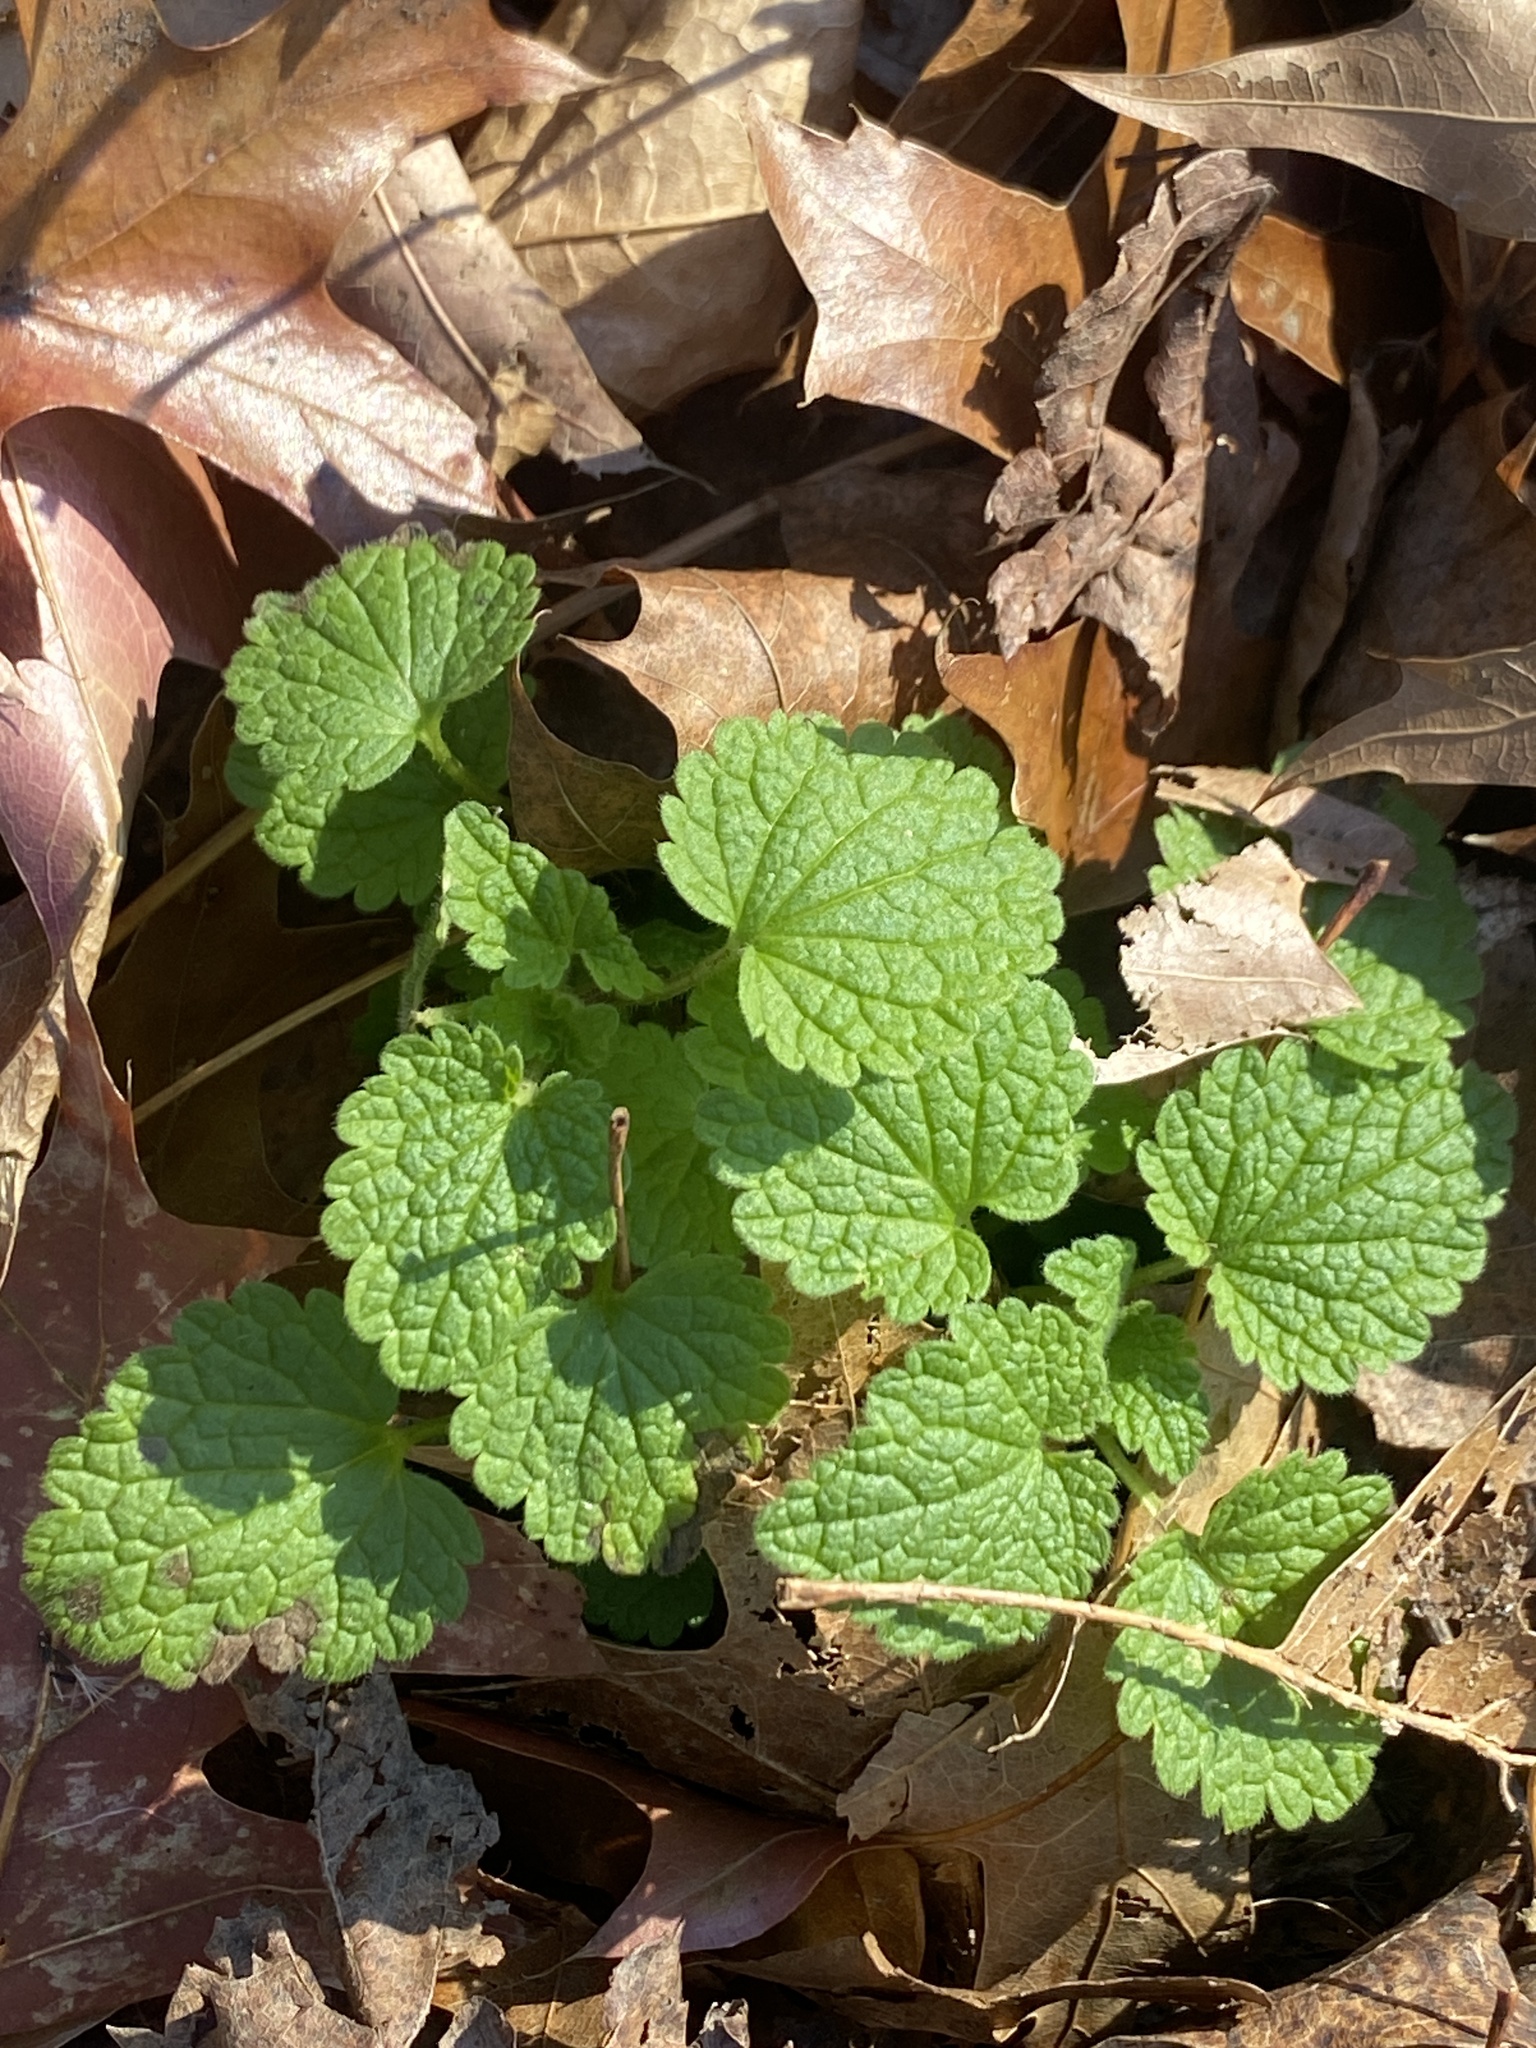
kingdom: Plantae
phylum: Tracheophyta
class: Magnoliopsida
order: Lamiales
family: Lamiaceae
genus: Lamium
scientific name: Lamium purpureum
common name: Red dead-nettle
